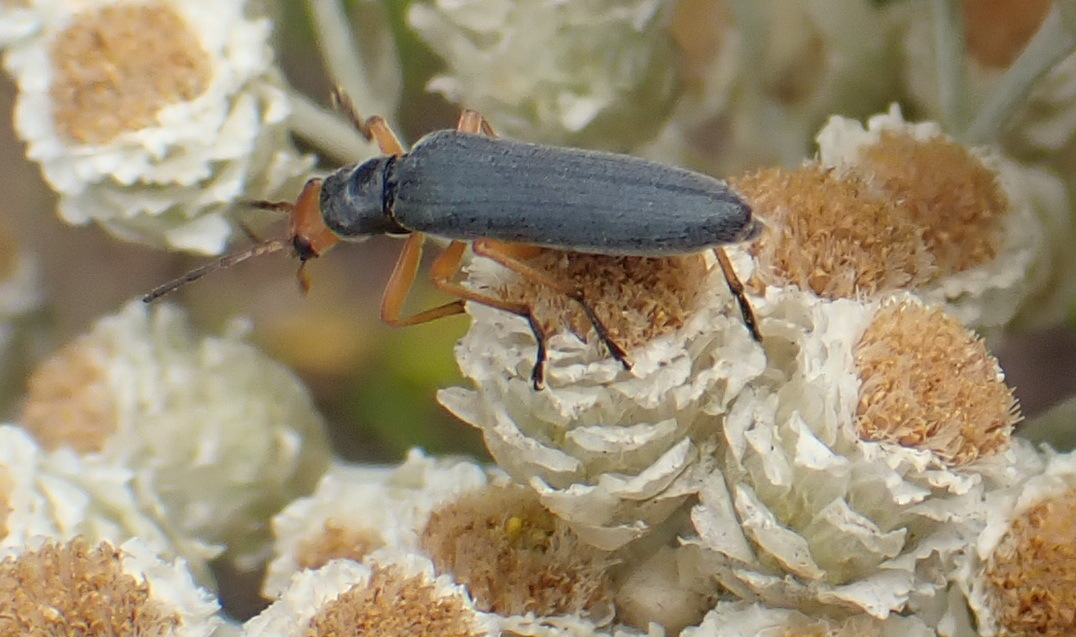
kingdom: Animalia
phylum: Arthropoda
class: Insecta
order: Coleoptera
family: Oedemeridae
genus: Melananthia
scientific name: Melananthia
